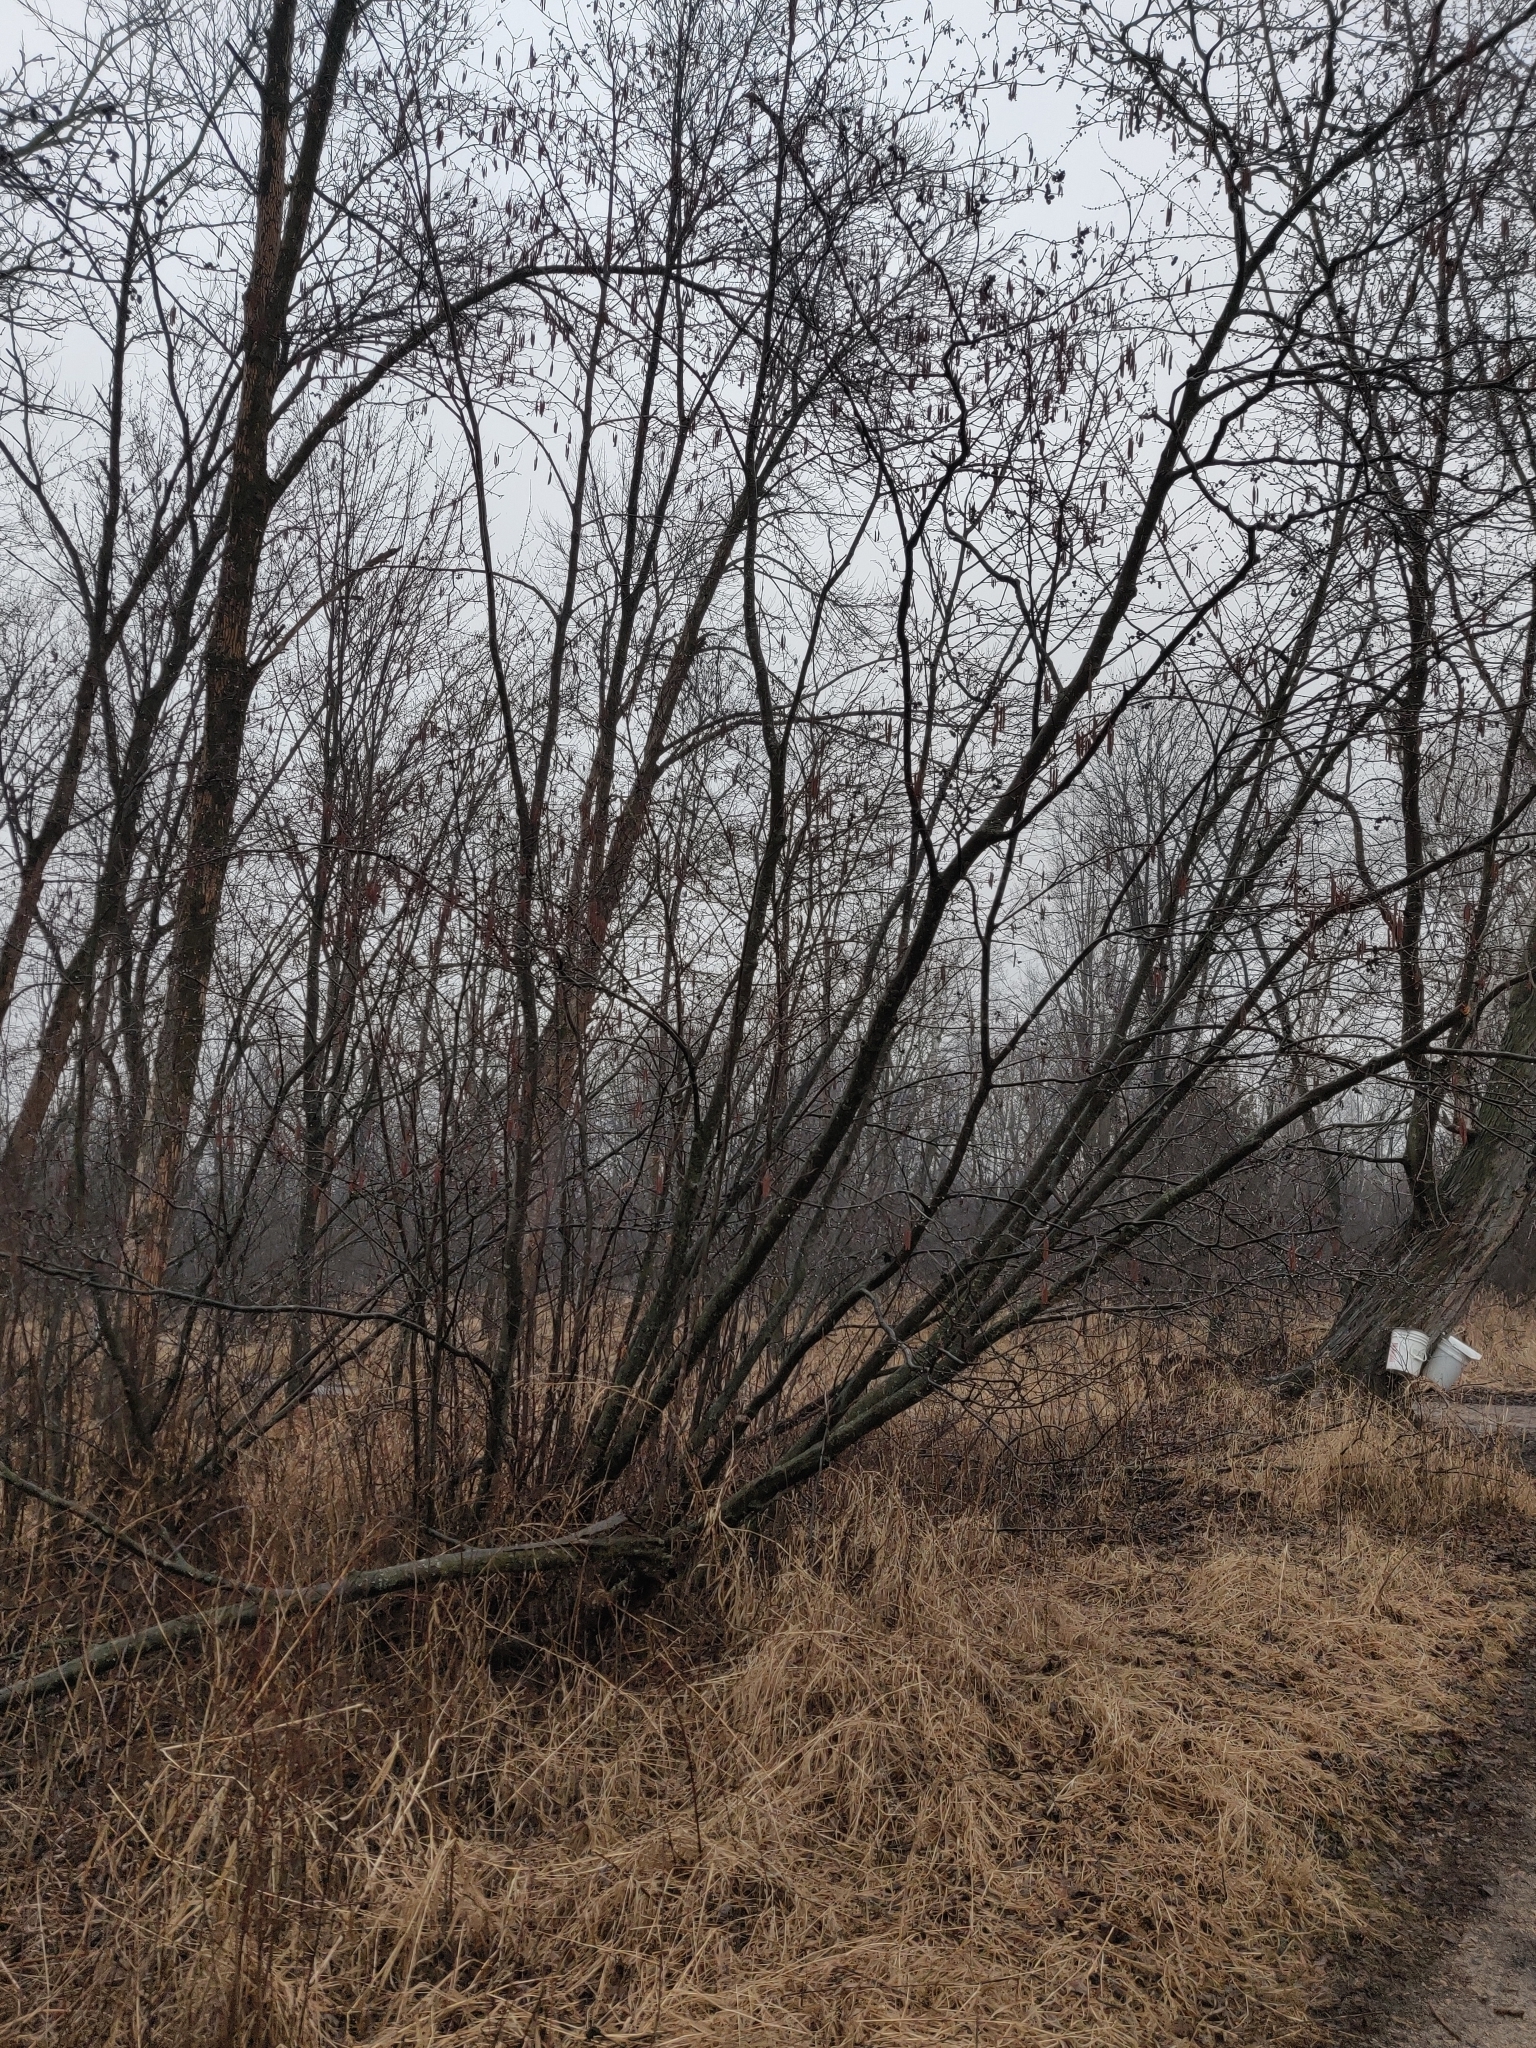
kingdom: Plantae
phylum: Tracheophyta
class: Magnoliopsida
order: Fagales
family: Betulaceae
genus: Alnus
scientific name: Alnus incana
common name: Grey alder
